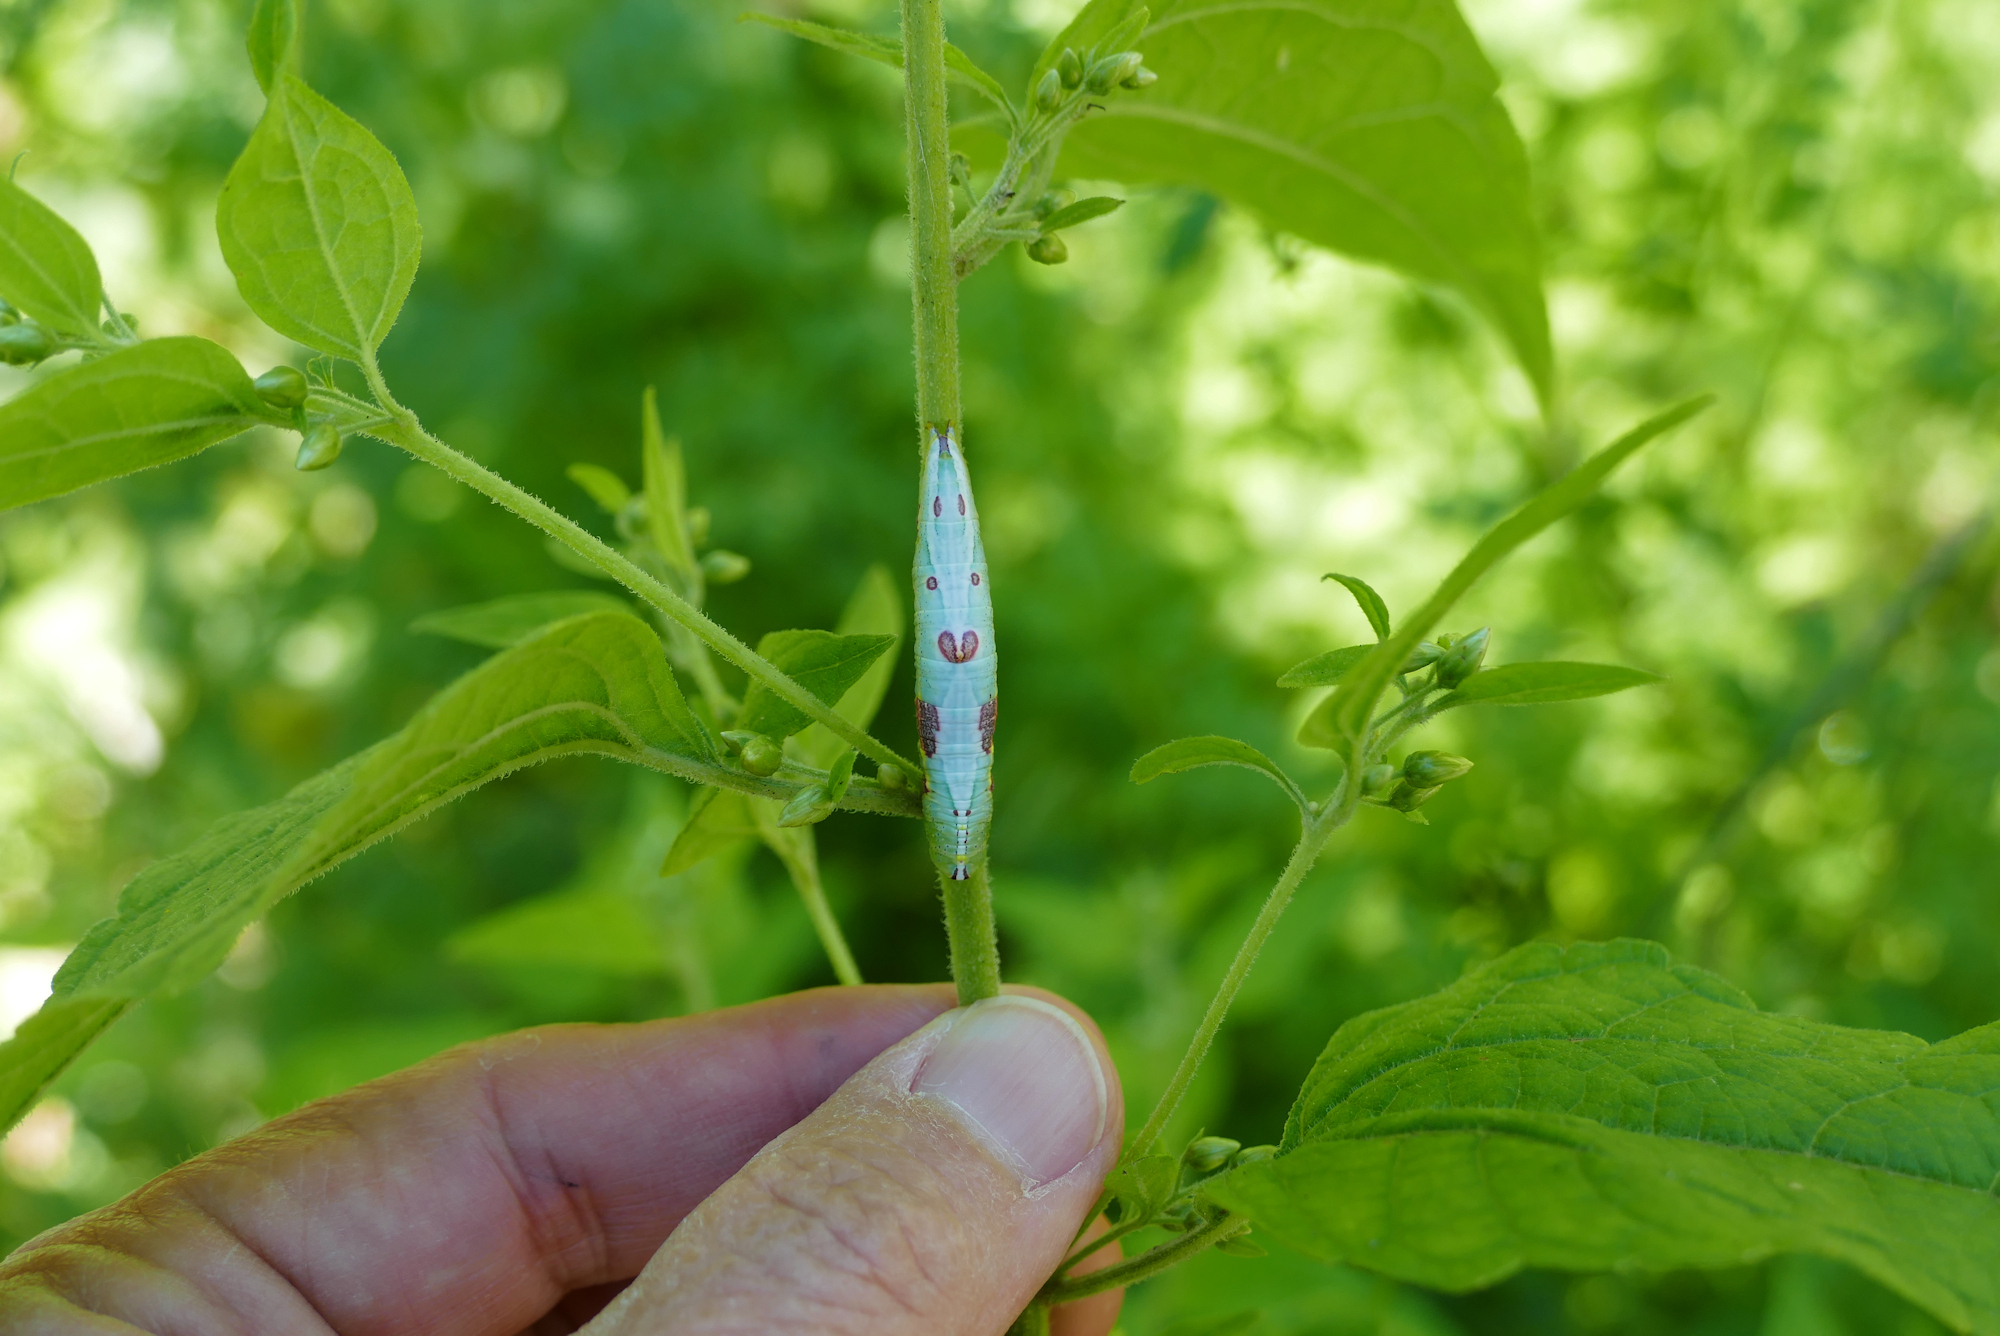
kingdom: Animalia
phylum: Arthropoda
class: Insecta
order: Lepidoptera
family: Notodontidae
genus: Disphragis
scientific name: Disphragis
